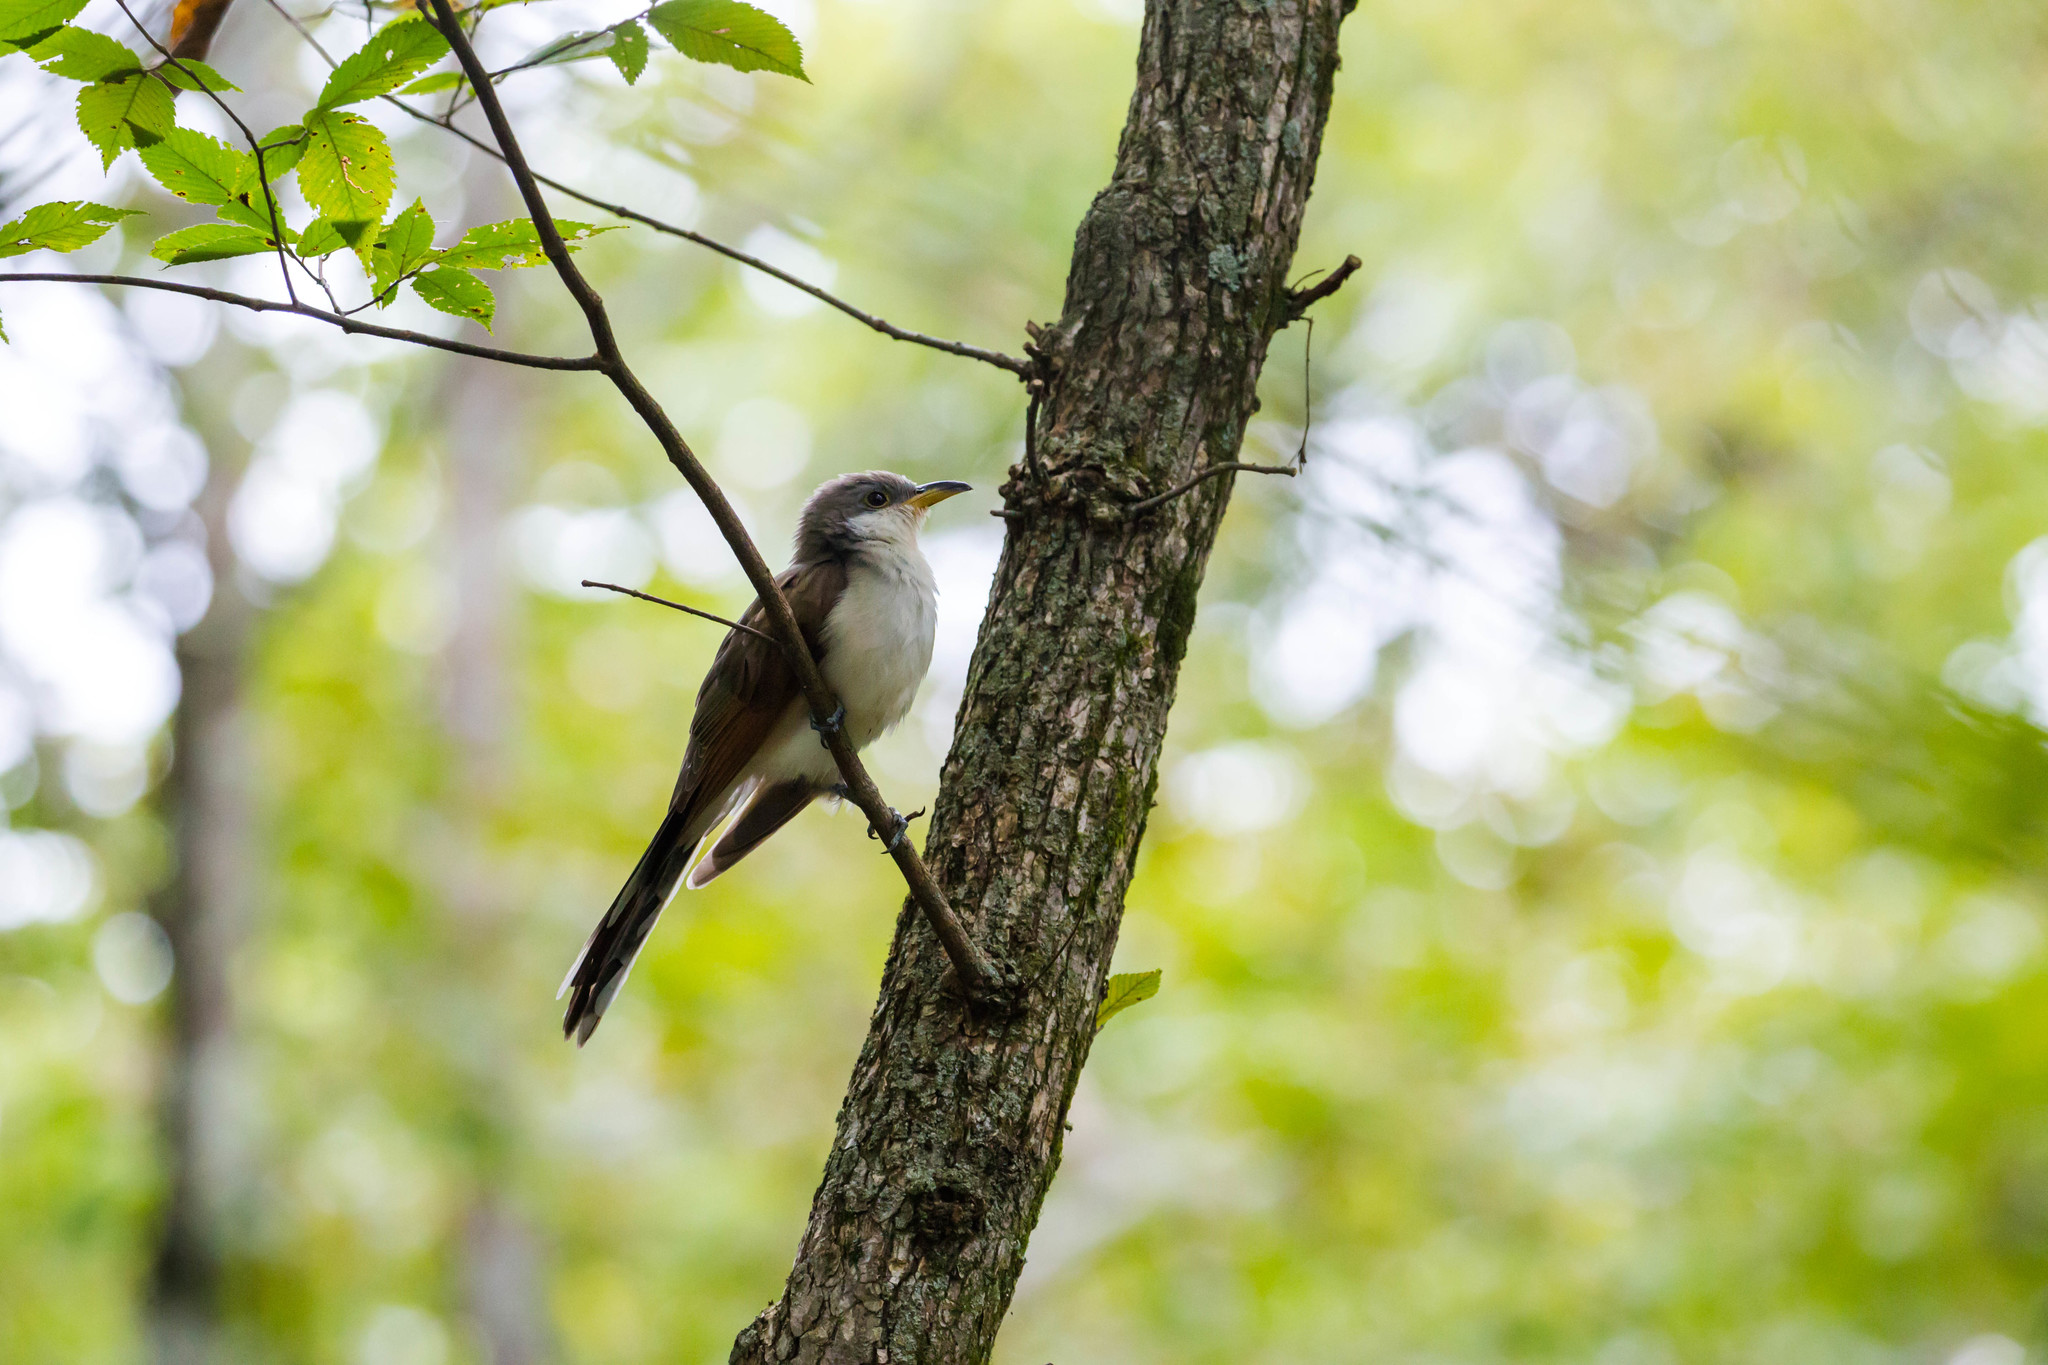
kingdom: Animalia
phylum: Chordata
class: Aves
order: Cuculiformes
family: Cuculidae
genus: Coccyzus
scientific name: Coccyzus americanus
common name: Yellow-billed cuckoo
